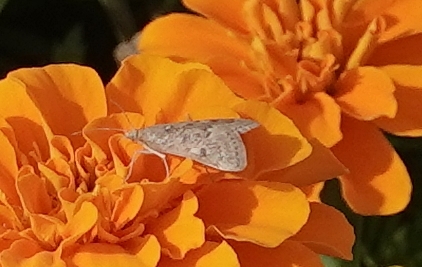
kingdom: Animalia
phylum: Arthropoda
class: Insecta
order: Lepidoptera
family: Crambidae
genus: Achyra
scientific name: Achyra rantalis
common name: Garden webworm
